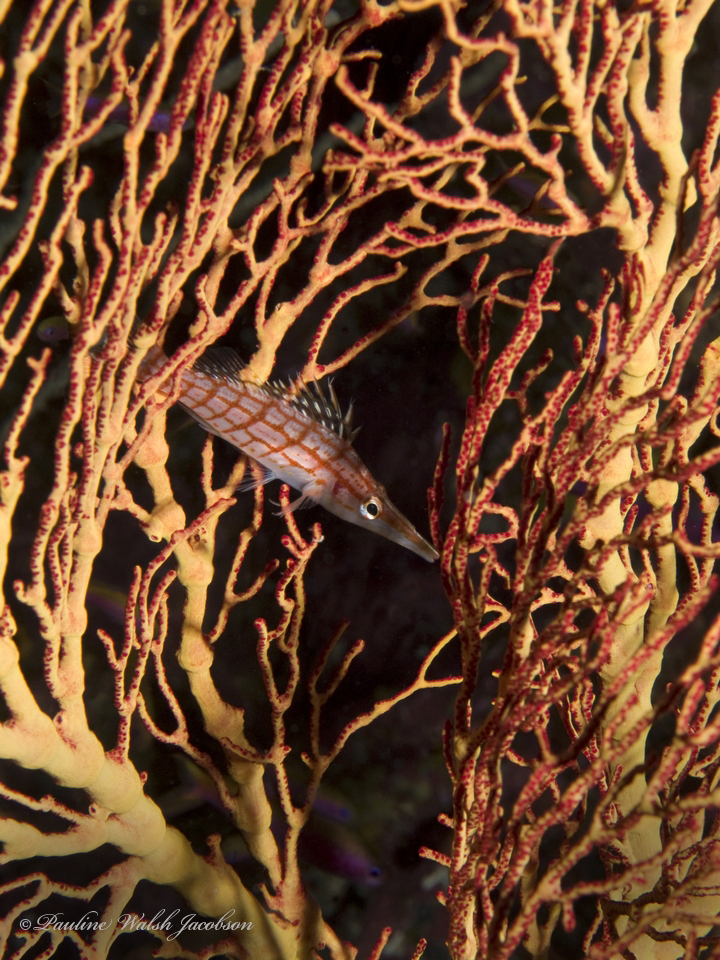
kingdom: Animalia
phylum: Chordata
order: Perciformes
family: Cirrhitidae
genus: Oxycirrhites
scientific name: Oxycirrhites typus
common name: Longnose hawkfish
